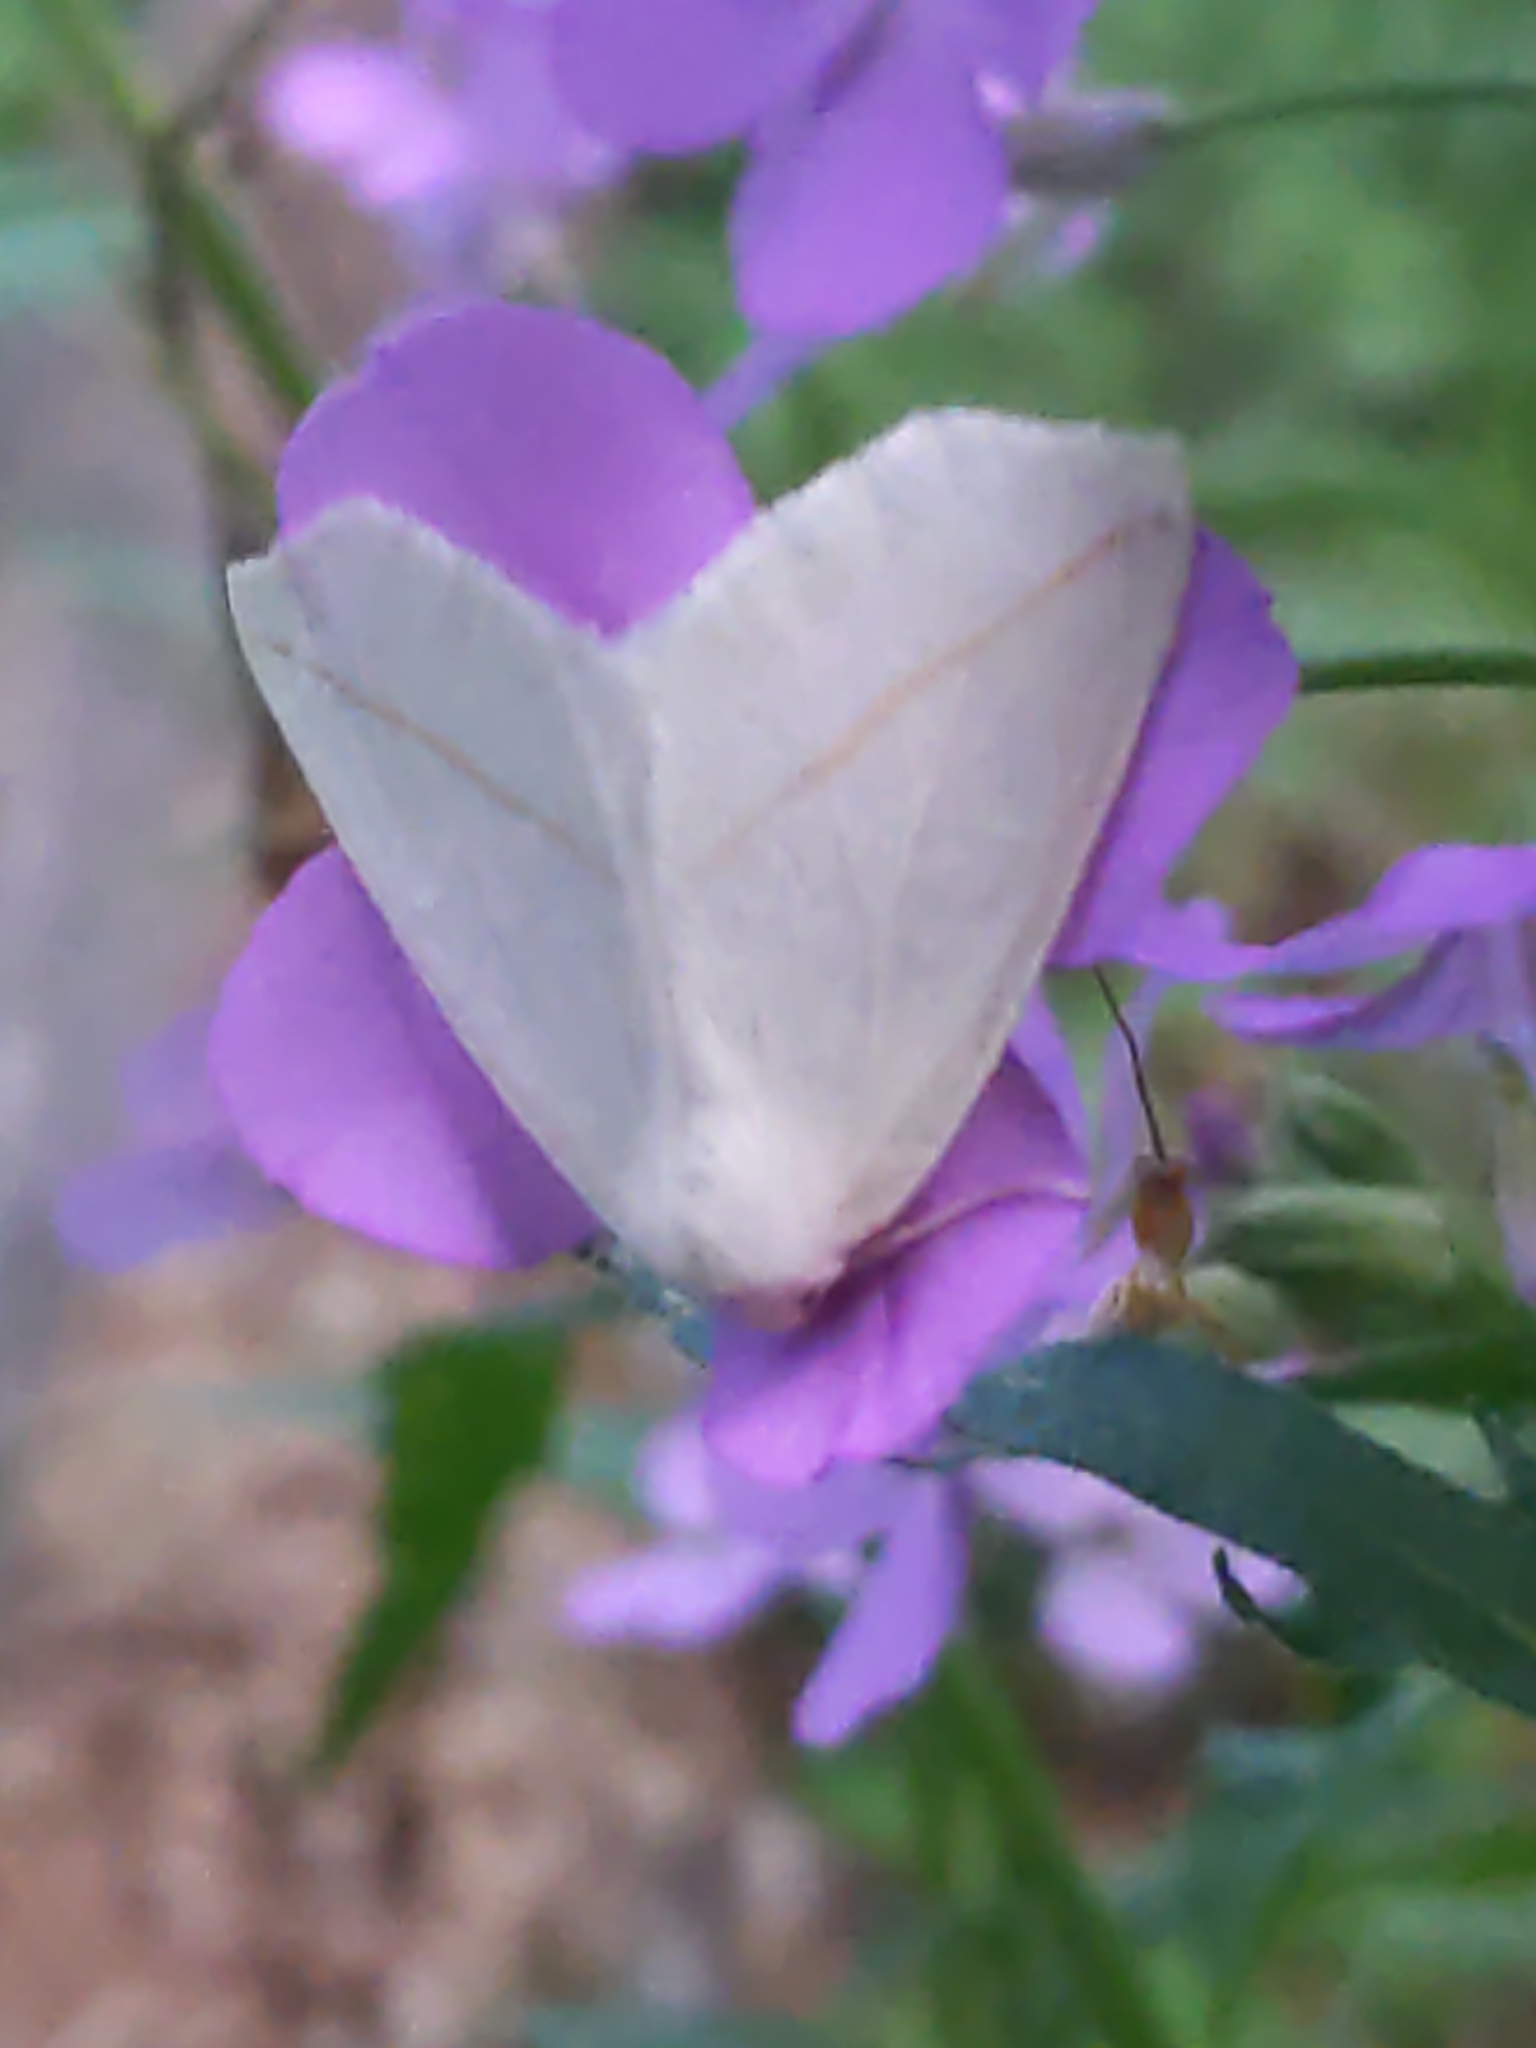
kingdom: Animalia
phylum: Arthropoda
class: Insecta
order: Lepidoptera
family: Geometridae
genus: Tetracis
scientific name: Tetracis cachexiata
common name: White slant-line
